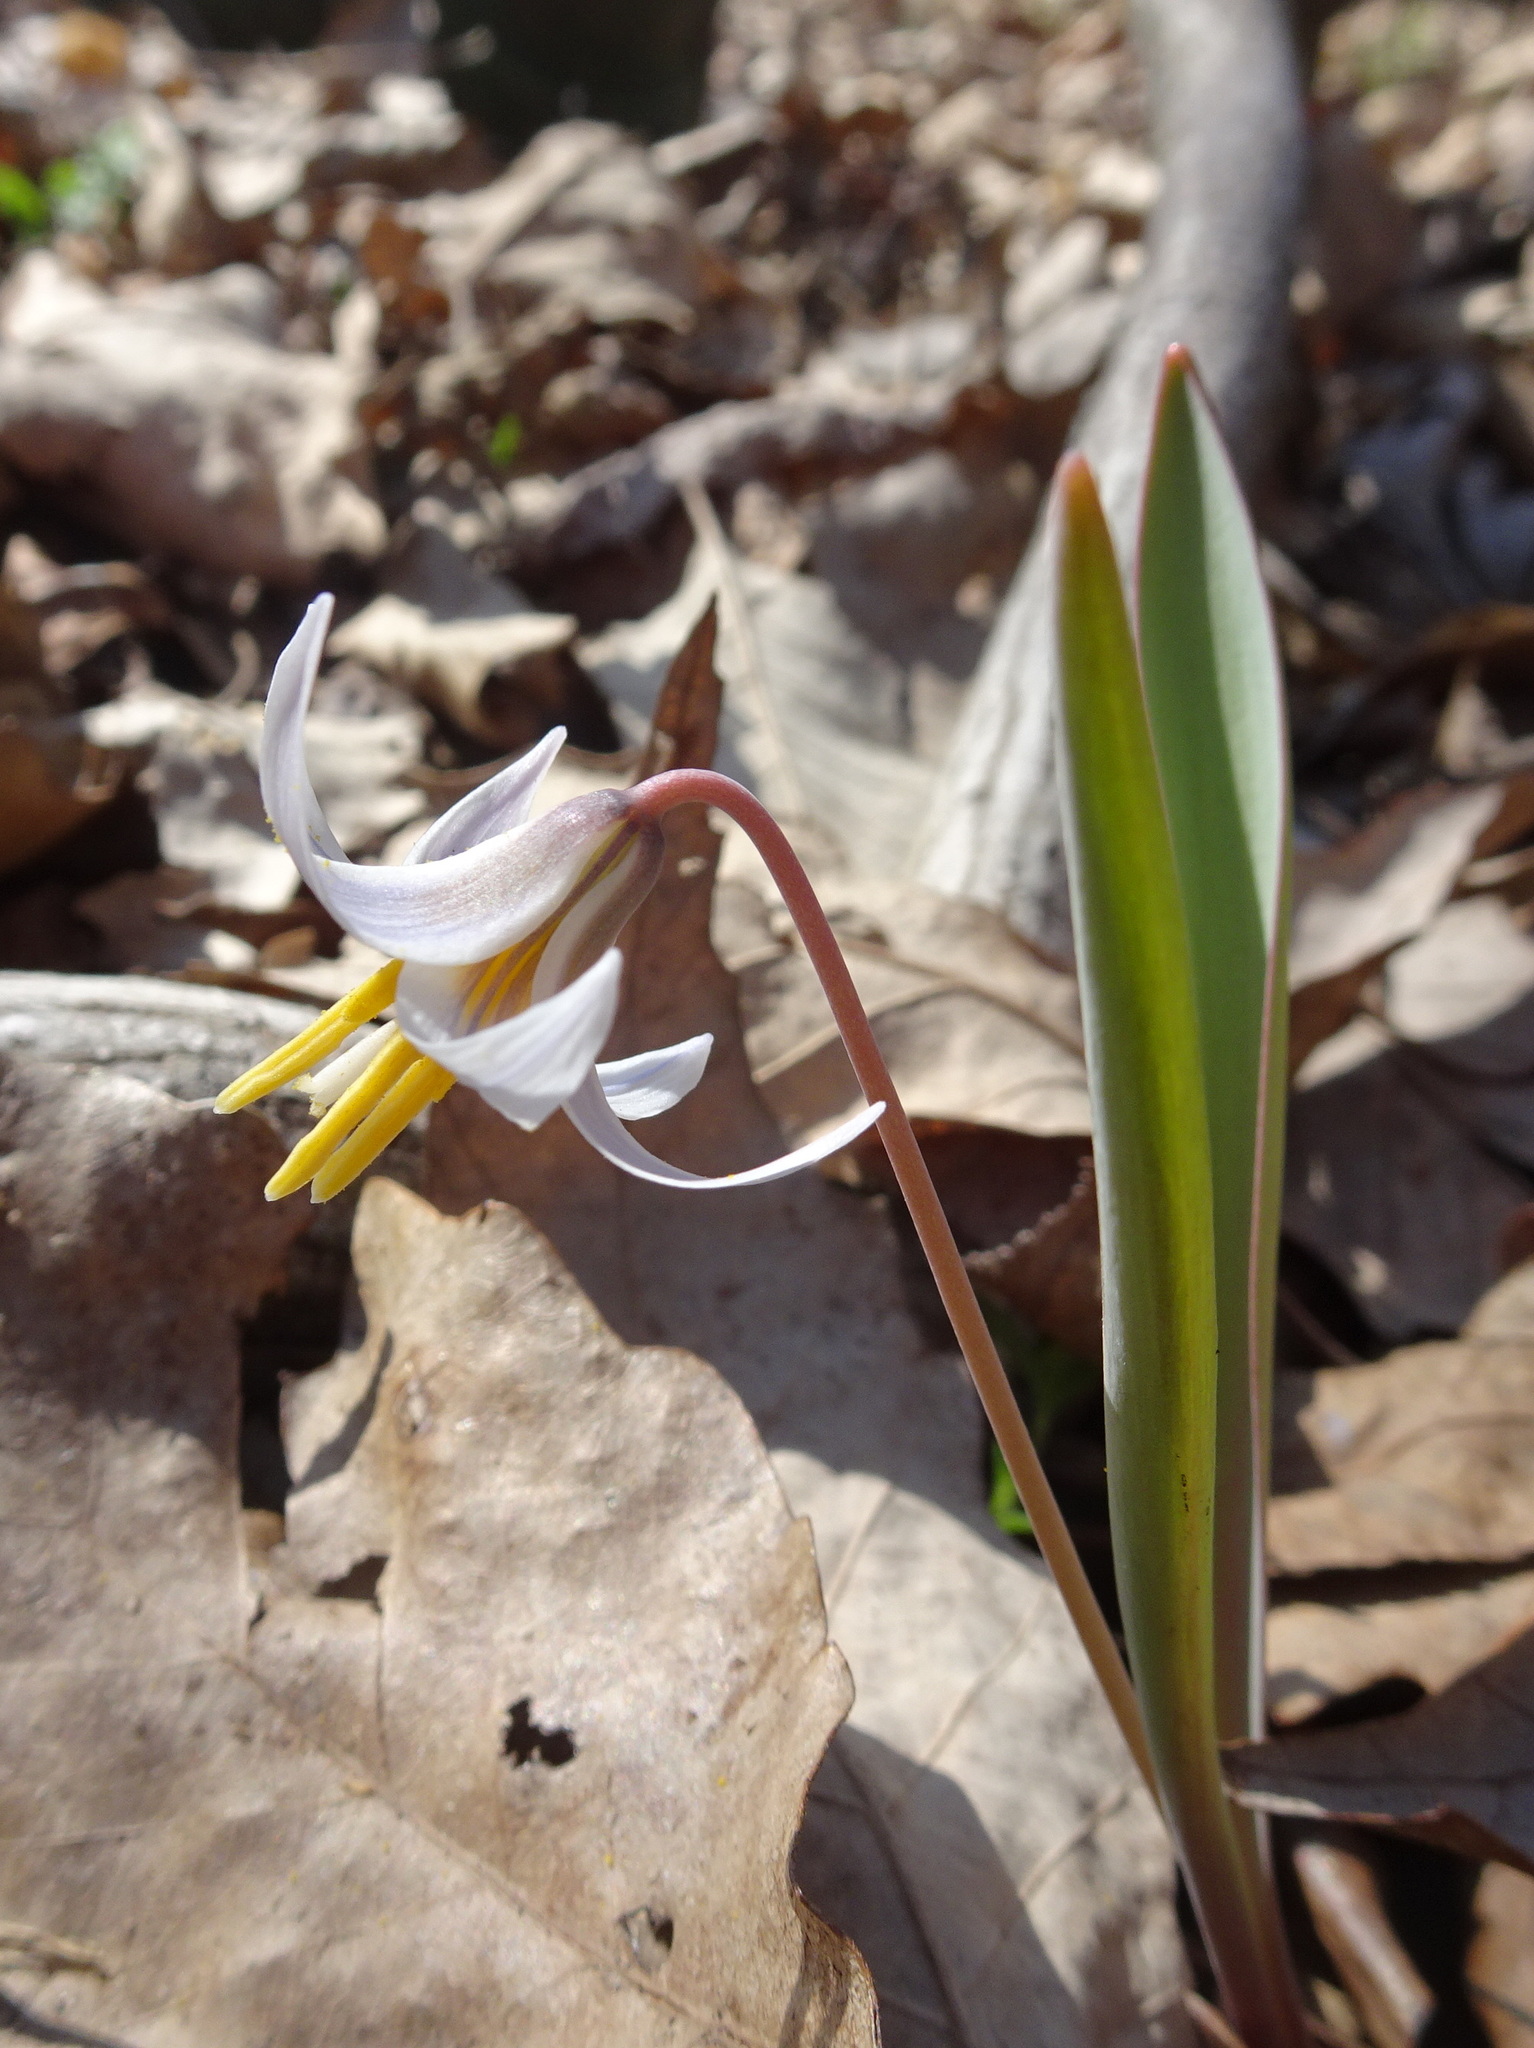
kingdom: Plantae
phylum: Tracheophyta
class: Liliopsida
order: Liliales
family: Liliaceae
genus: Erythronium
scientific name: Erythronium mesochoreum
